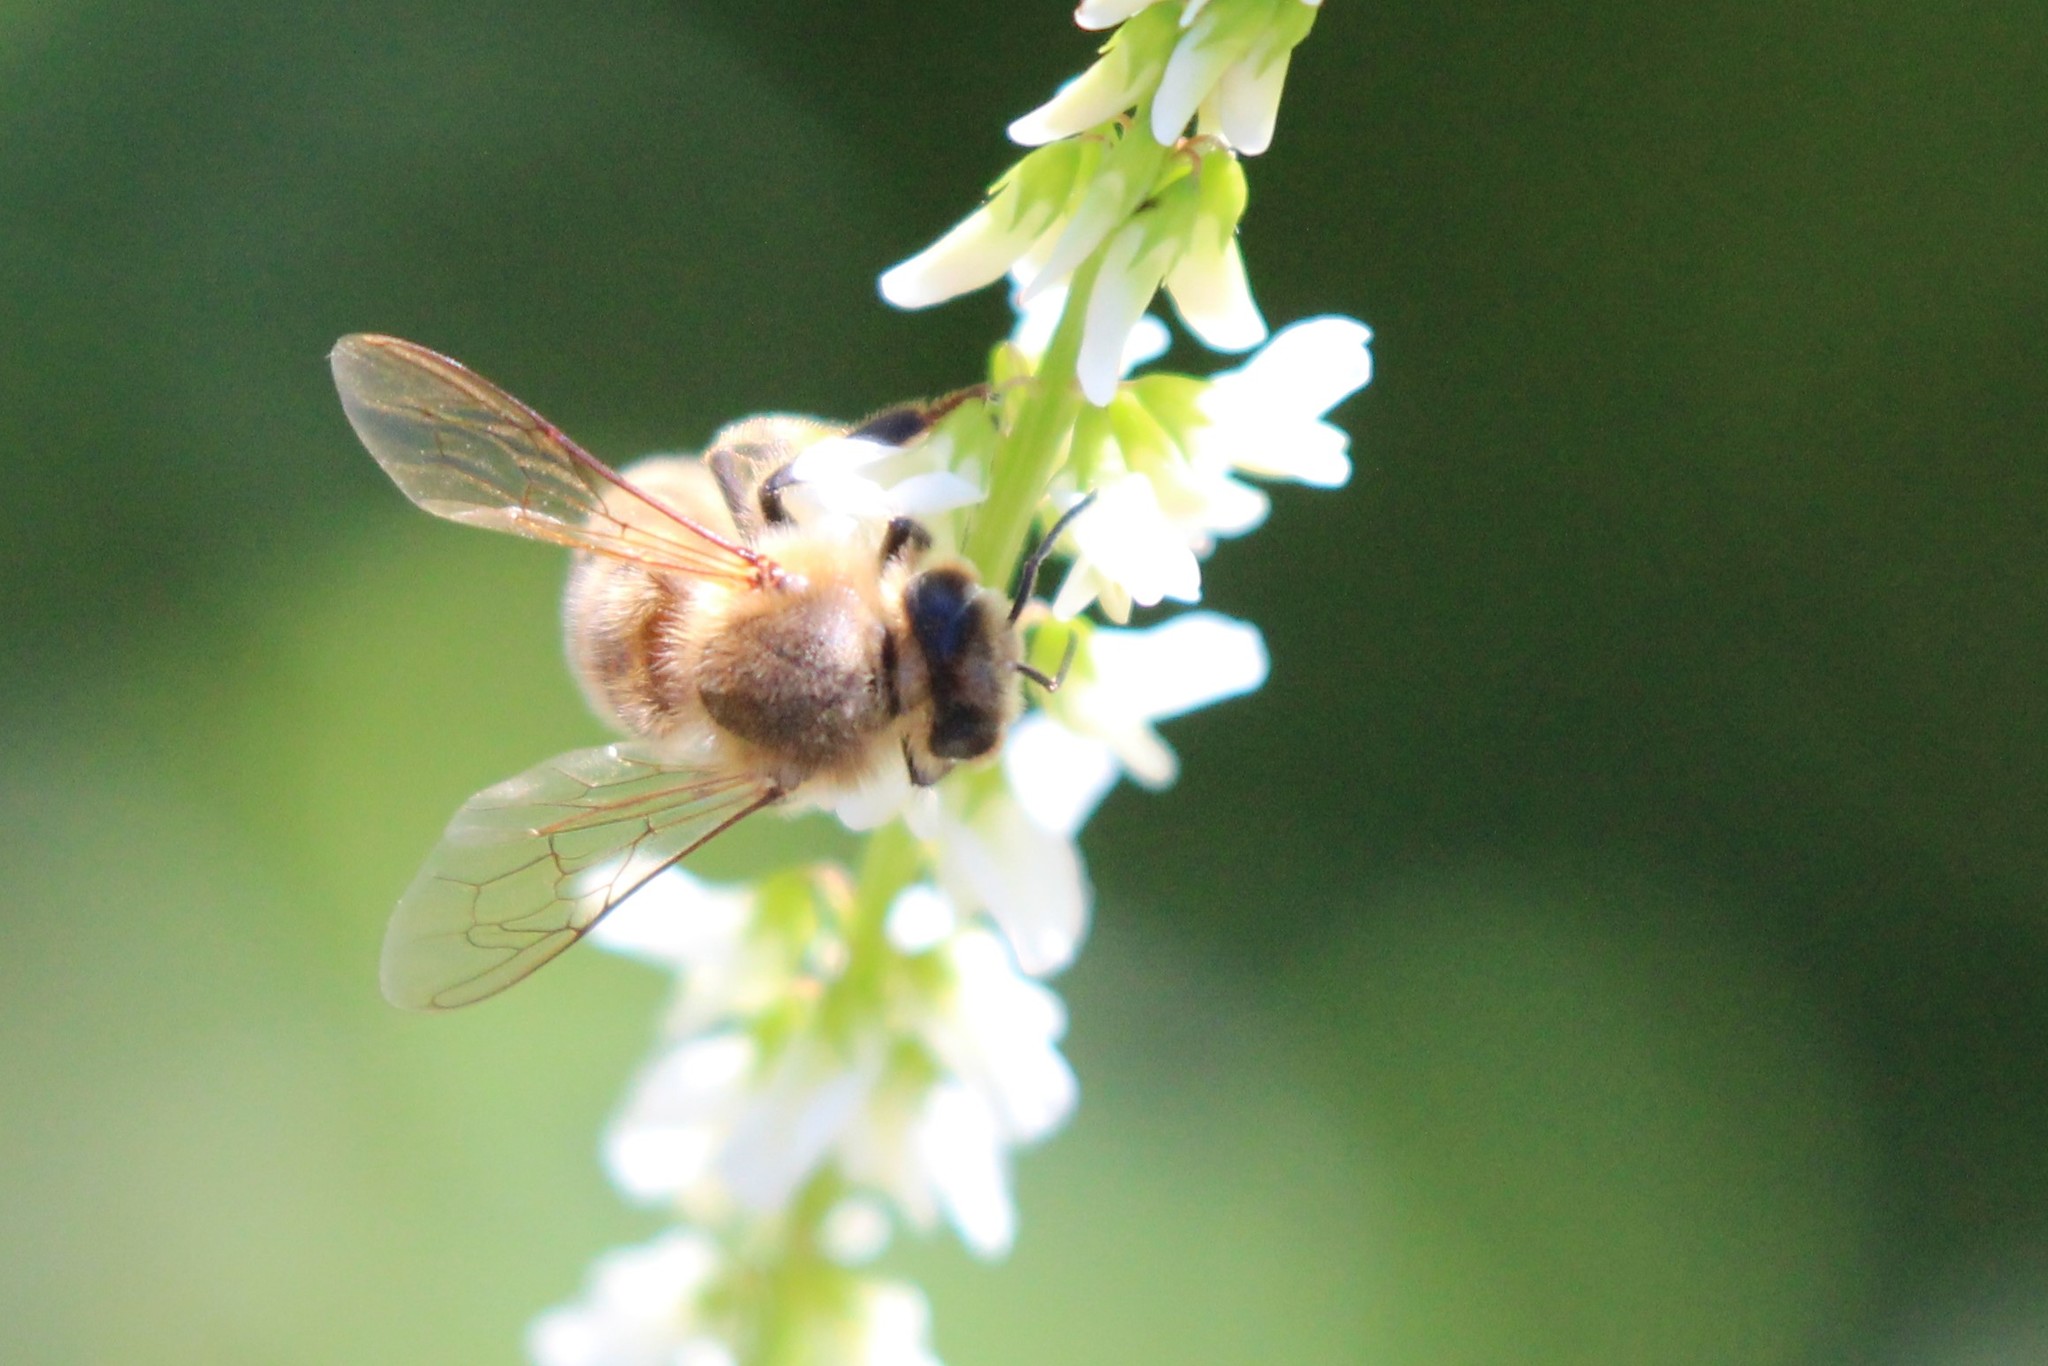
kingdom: Animalia
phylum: Arthropoda
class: Insecta
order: Hymenoptera
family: Apidae
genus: Apis
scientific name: Apis mellifera
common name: Honey bee
